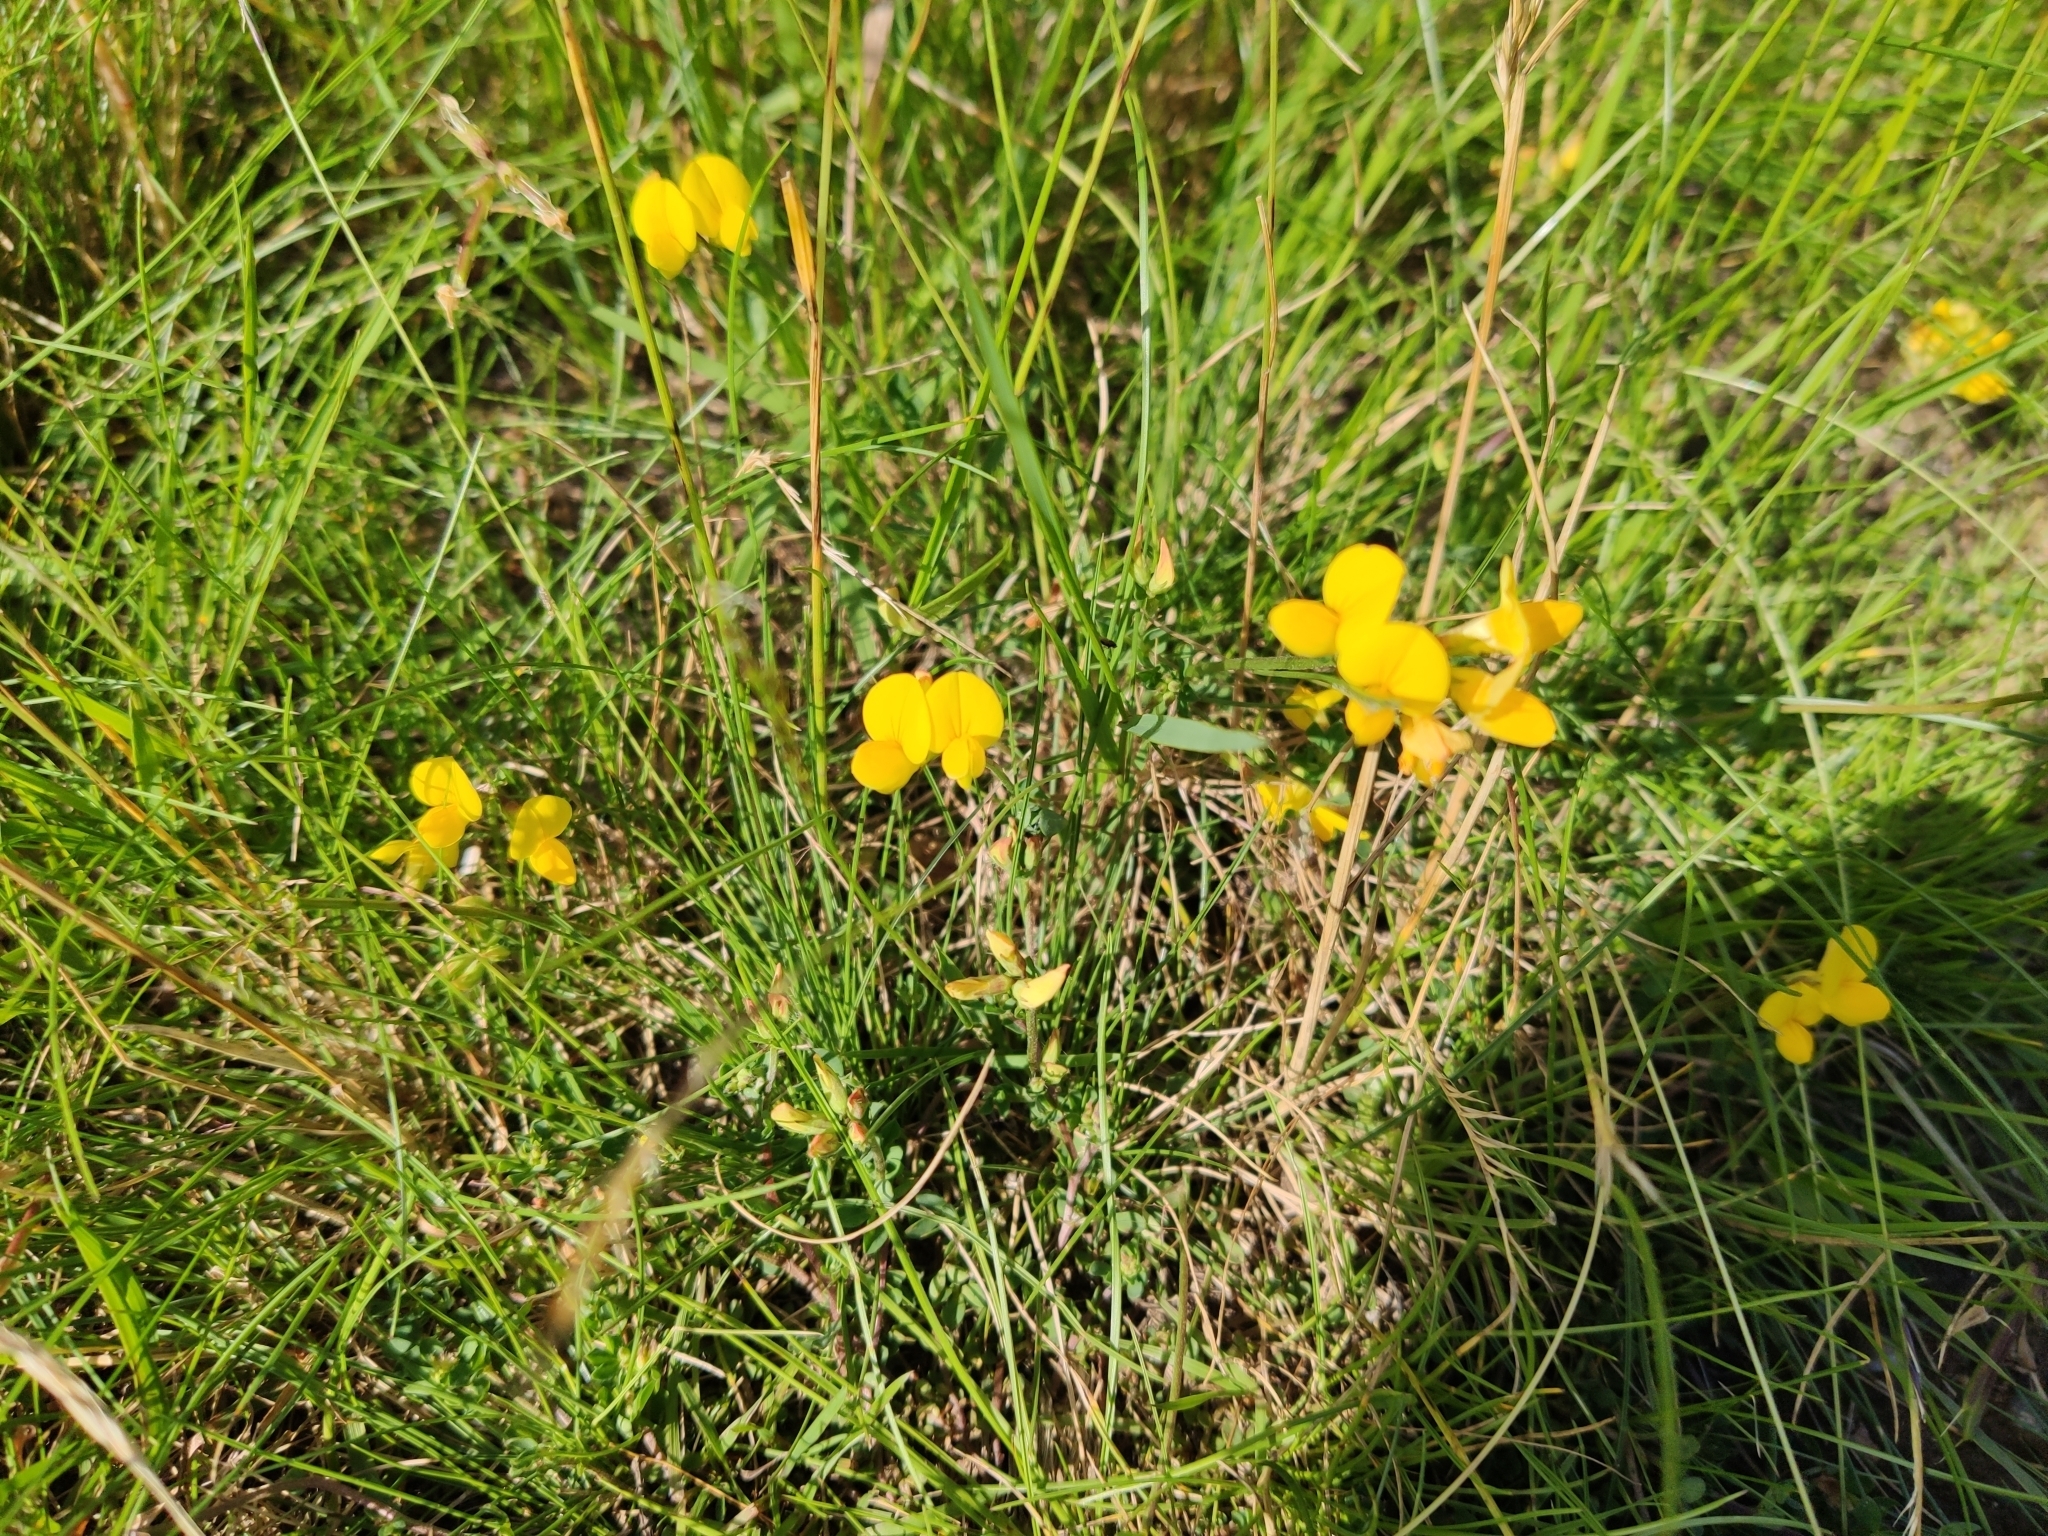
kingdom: Plantae
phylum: Tracheophyta
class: Magnoliopsida
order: Fabales
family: Fabaceae
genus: Lotus
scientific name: Lotus corniculatus
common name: Common bird's-foot-trefoil
